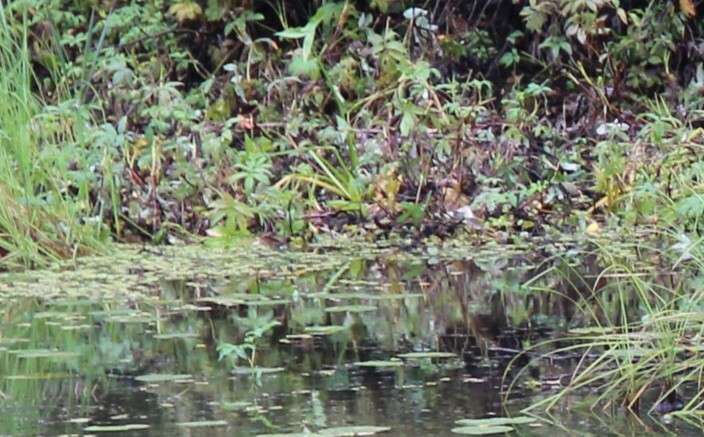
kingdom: Plantae
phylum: Tracheophyta
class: Magnoliopsida
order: Rosales
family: Rosaceae
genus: Comarum
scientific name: Comarum palustre
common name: Marsh cinquefoil
